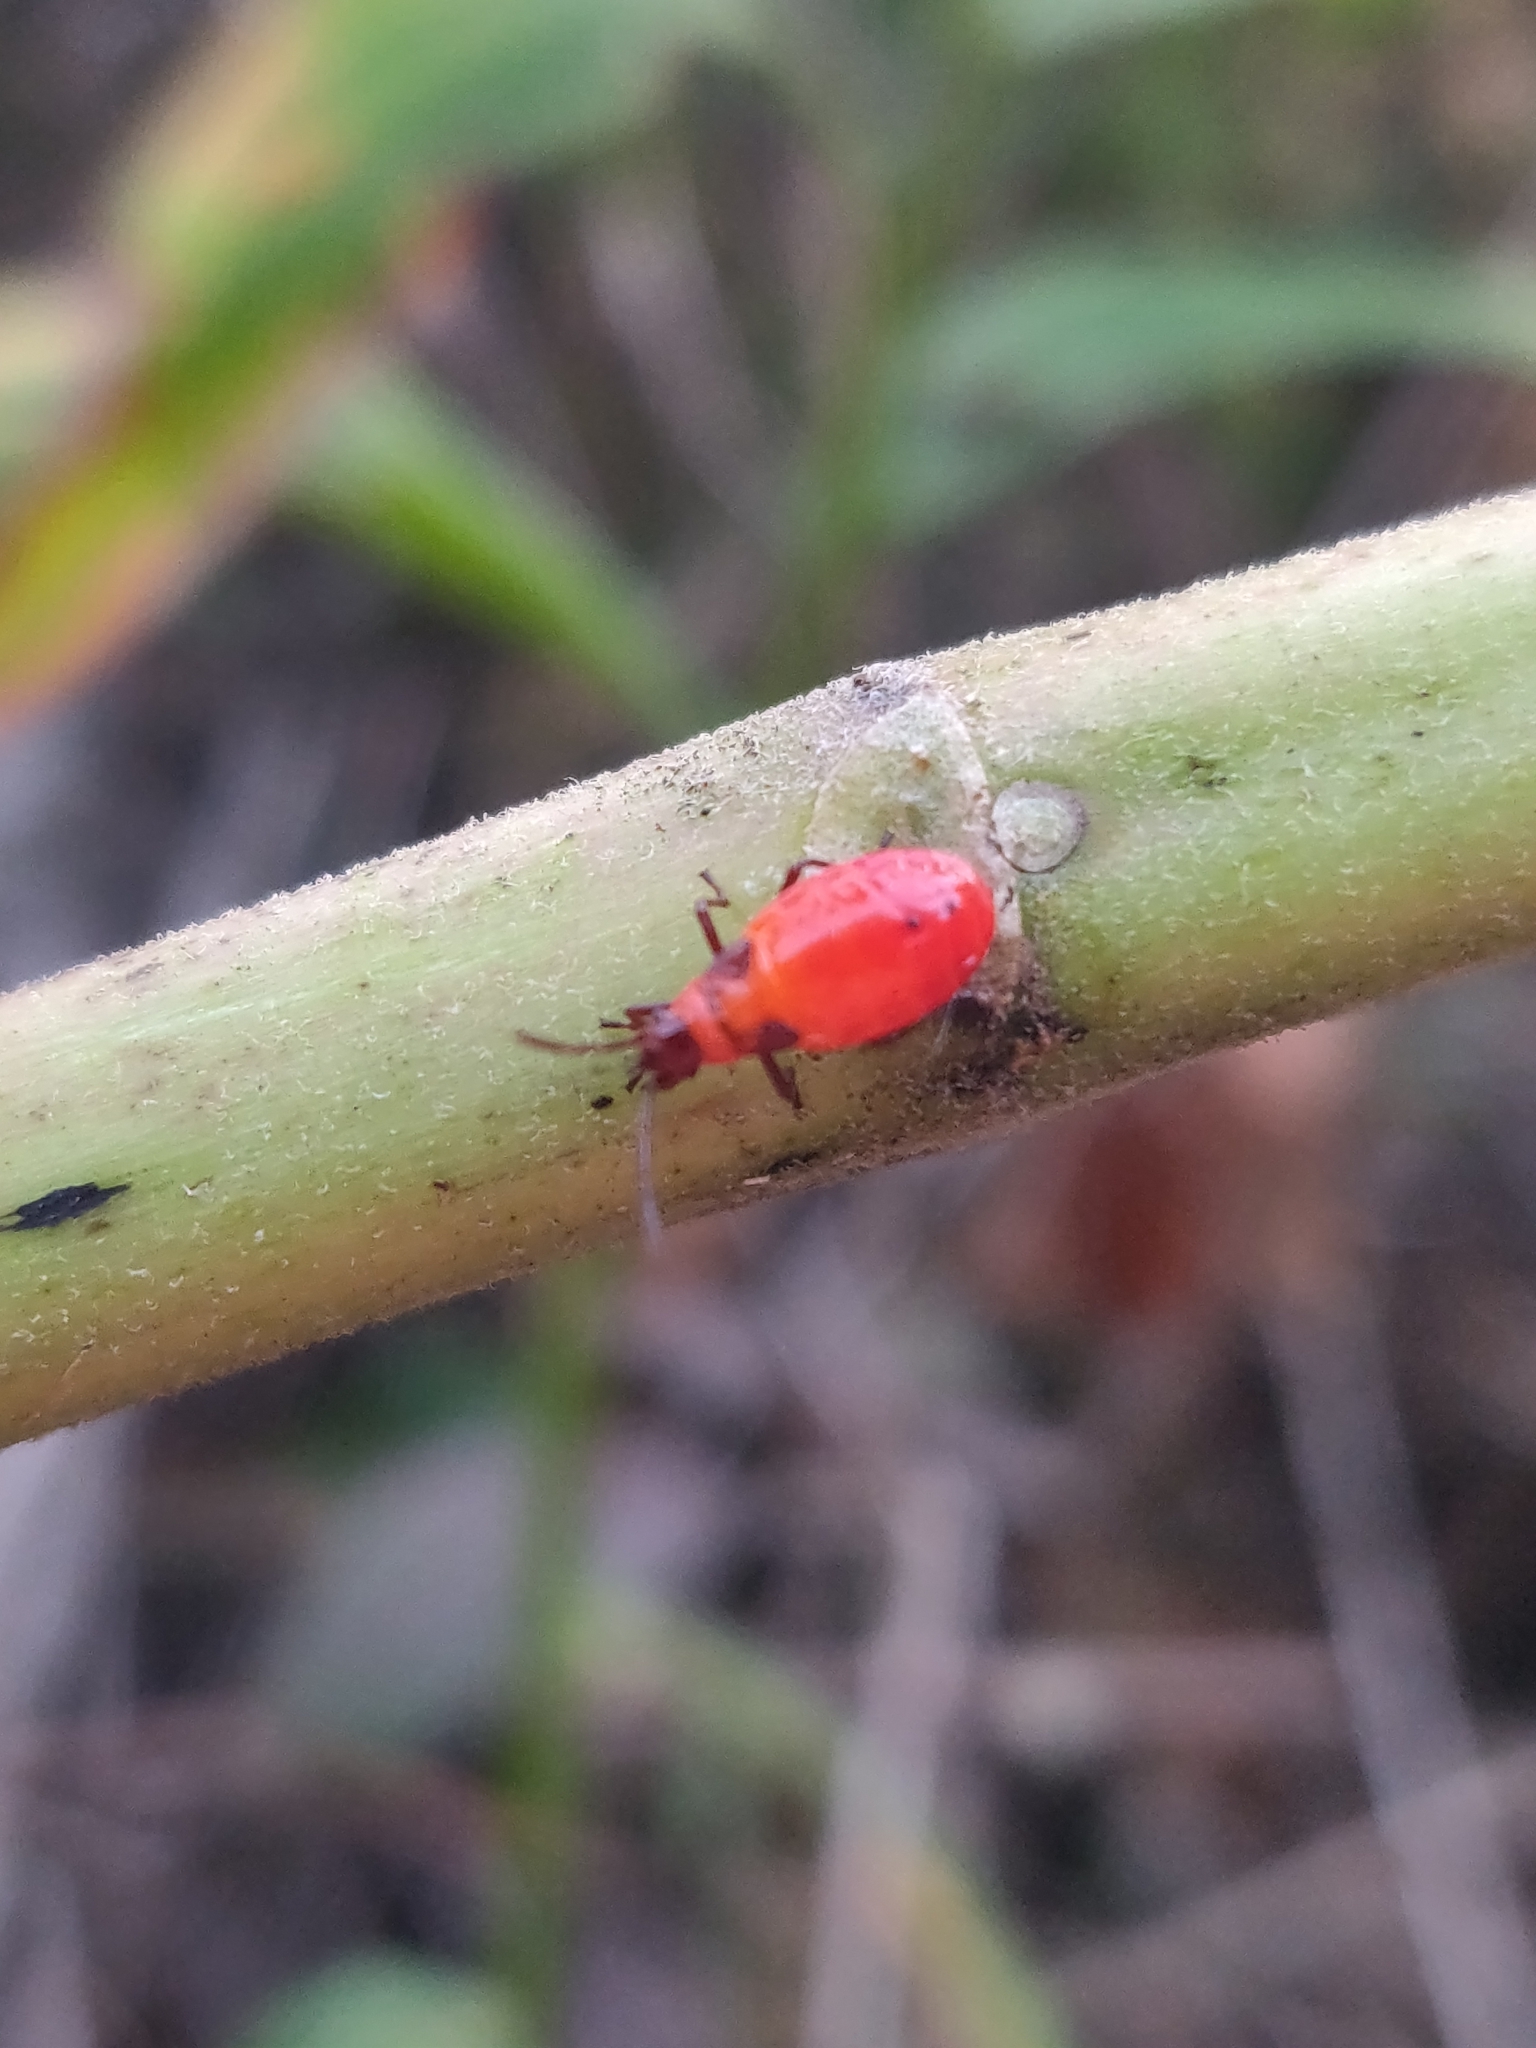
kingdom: Animalia
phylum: Arthropoda
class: Insecta
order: Hemiptera
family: Lygaeidae
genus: Oncopeltus
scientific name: Oncopeltus fasciatus
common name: Large milkweed bug
